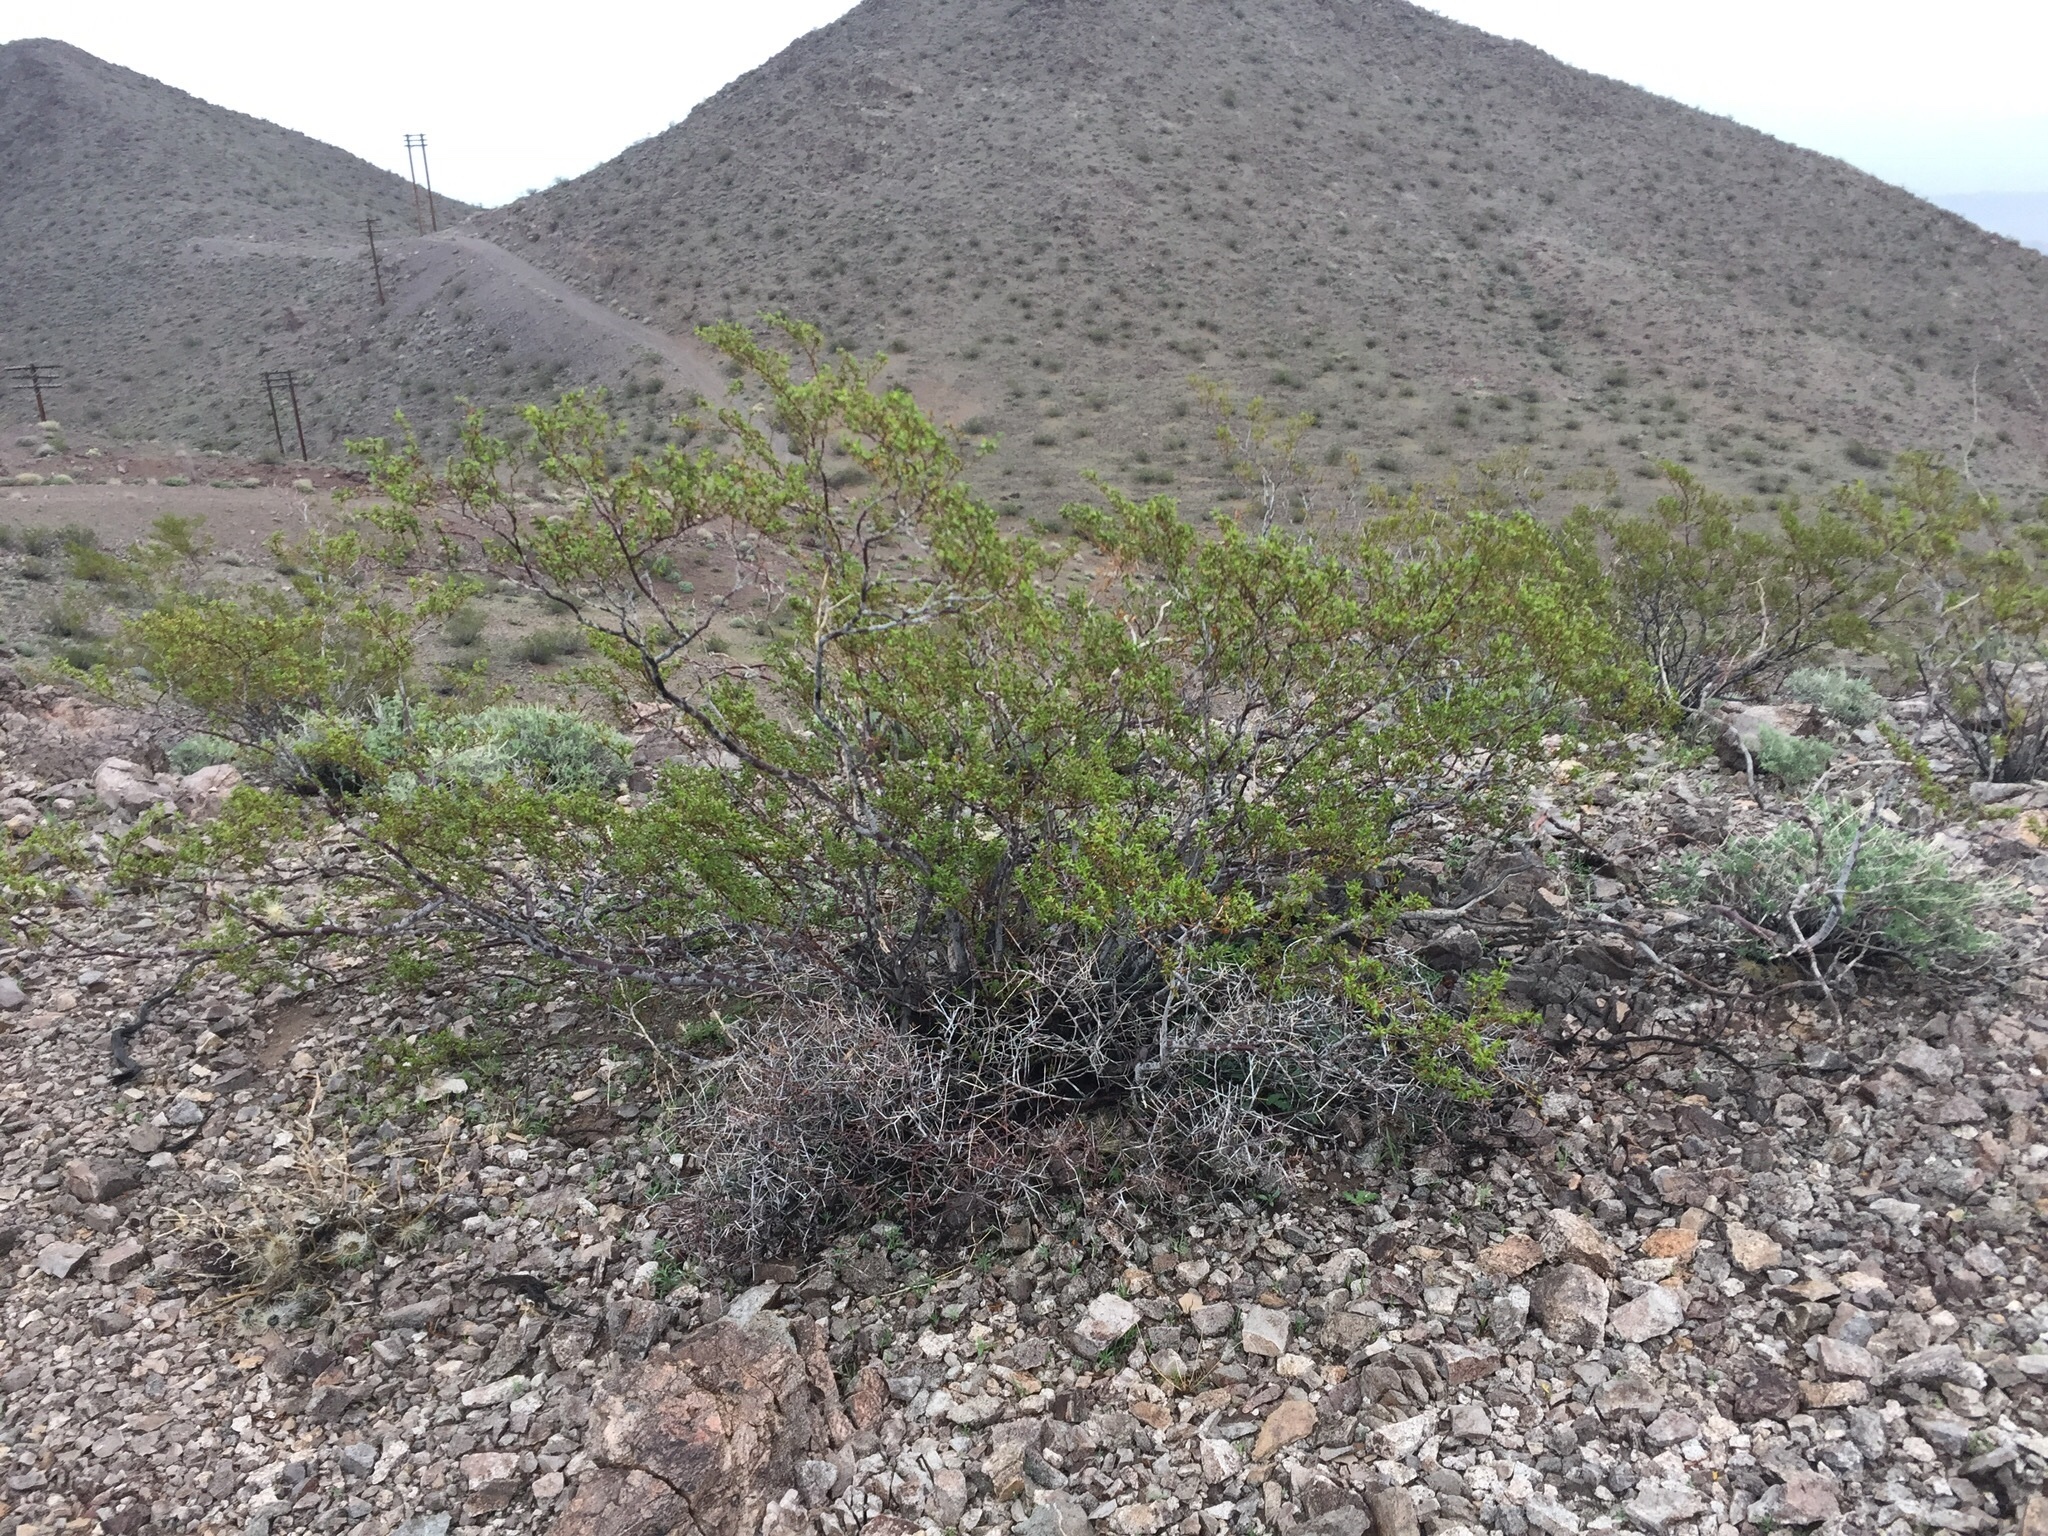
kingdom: Plantae
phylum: Tracheophyta
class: Magnoliopsida
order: Zygophyllales
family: Zygophyllaceae
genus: Larrea
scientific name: Larrea tridentata
